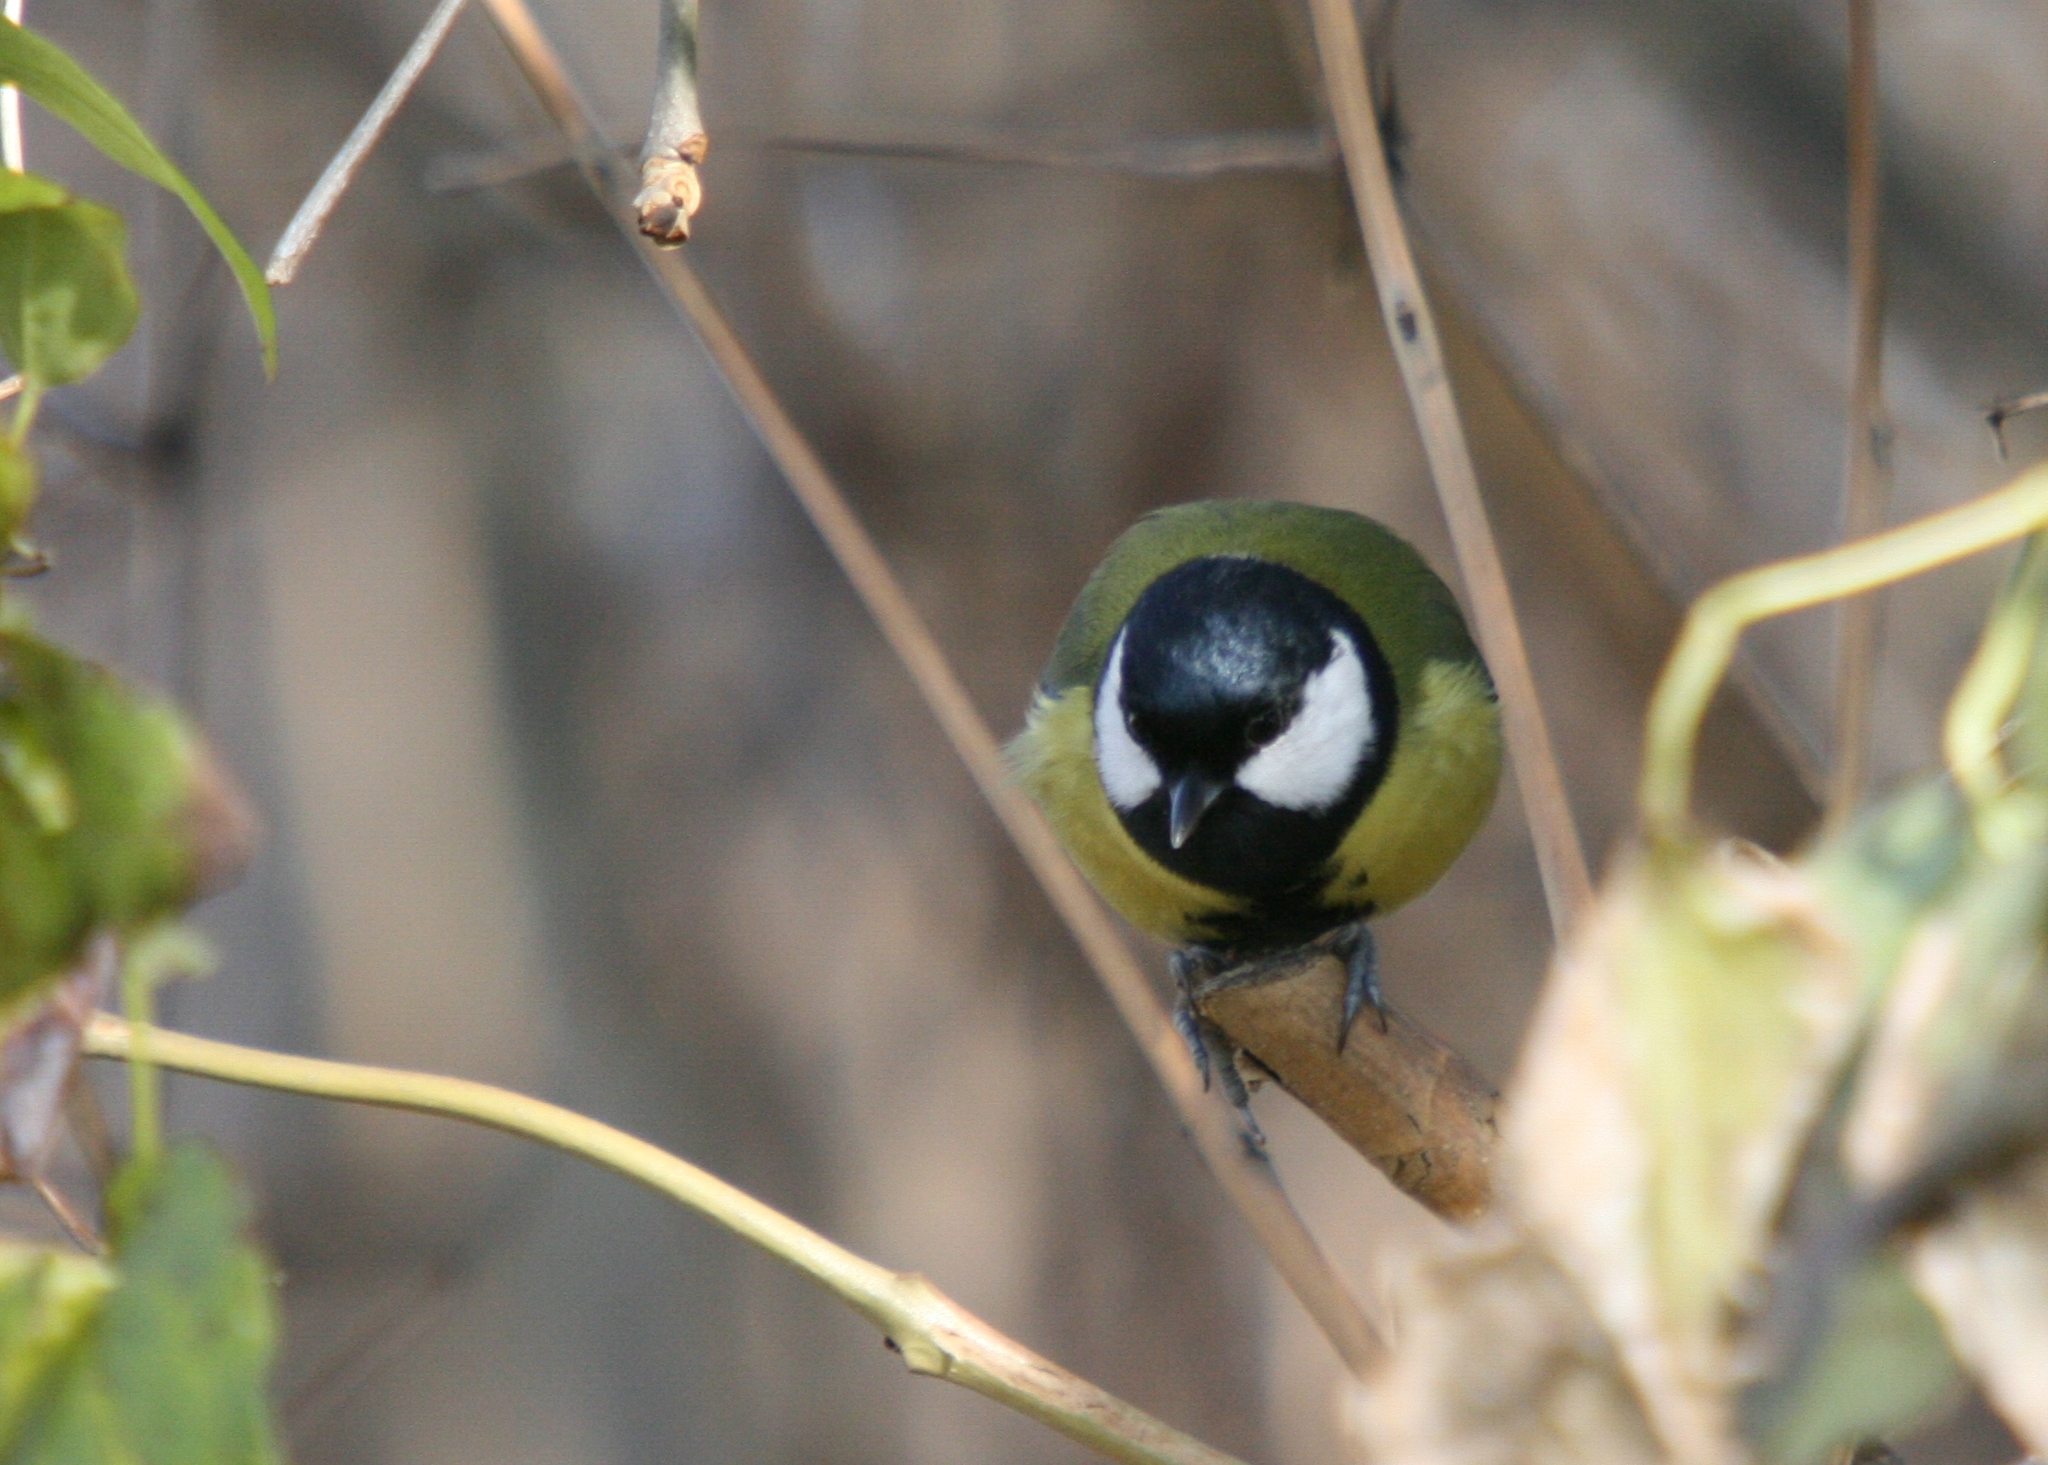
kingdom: Animalia
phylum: Chordata
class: Aves
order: Passeriformes
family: Paridae
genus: Parus
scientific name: Parus major
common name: Great tit
